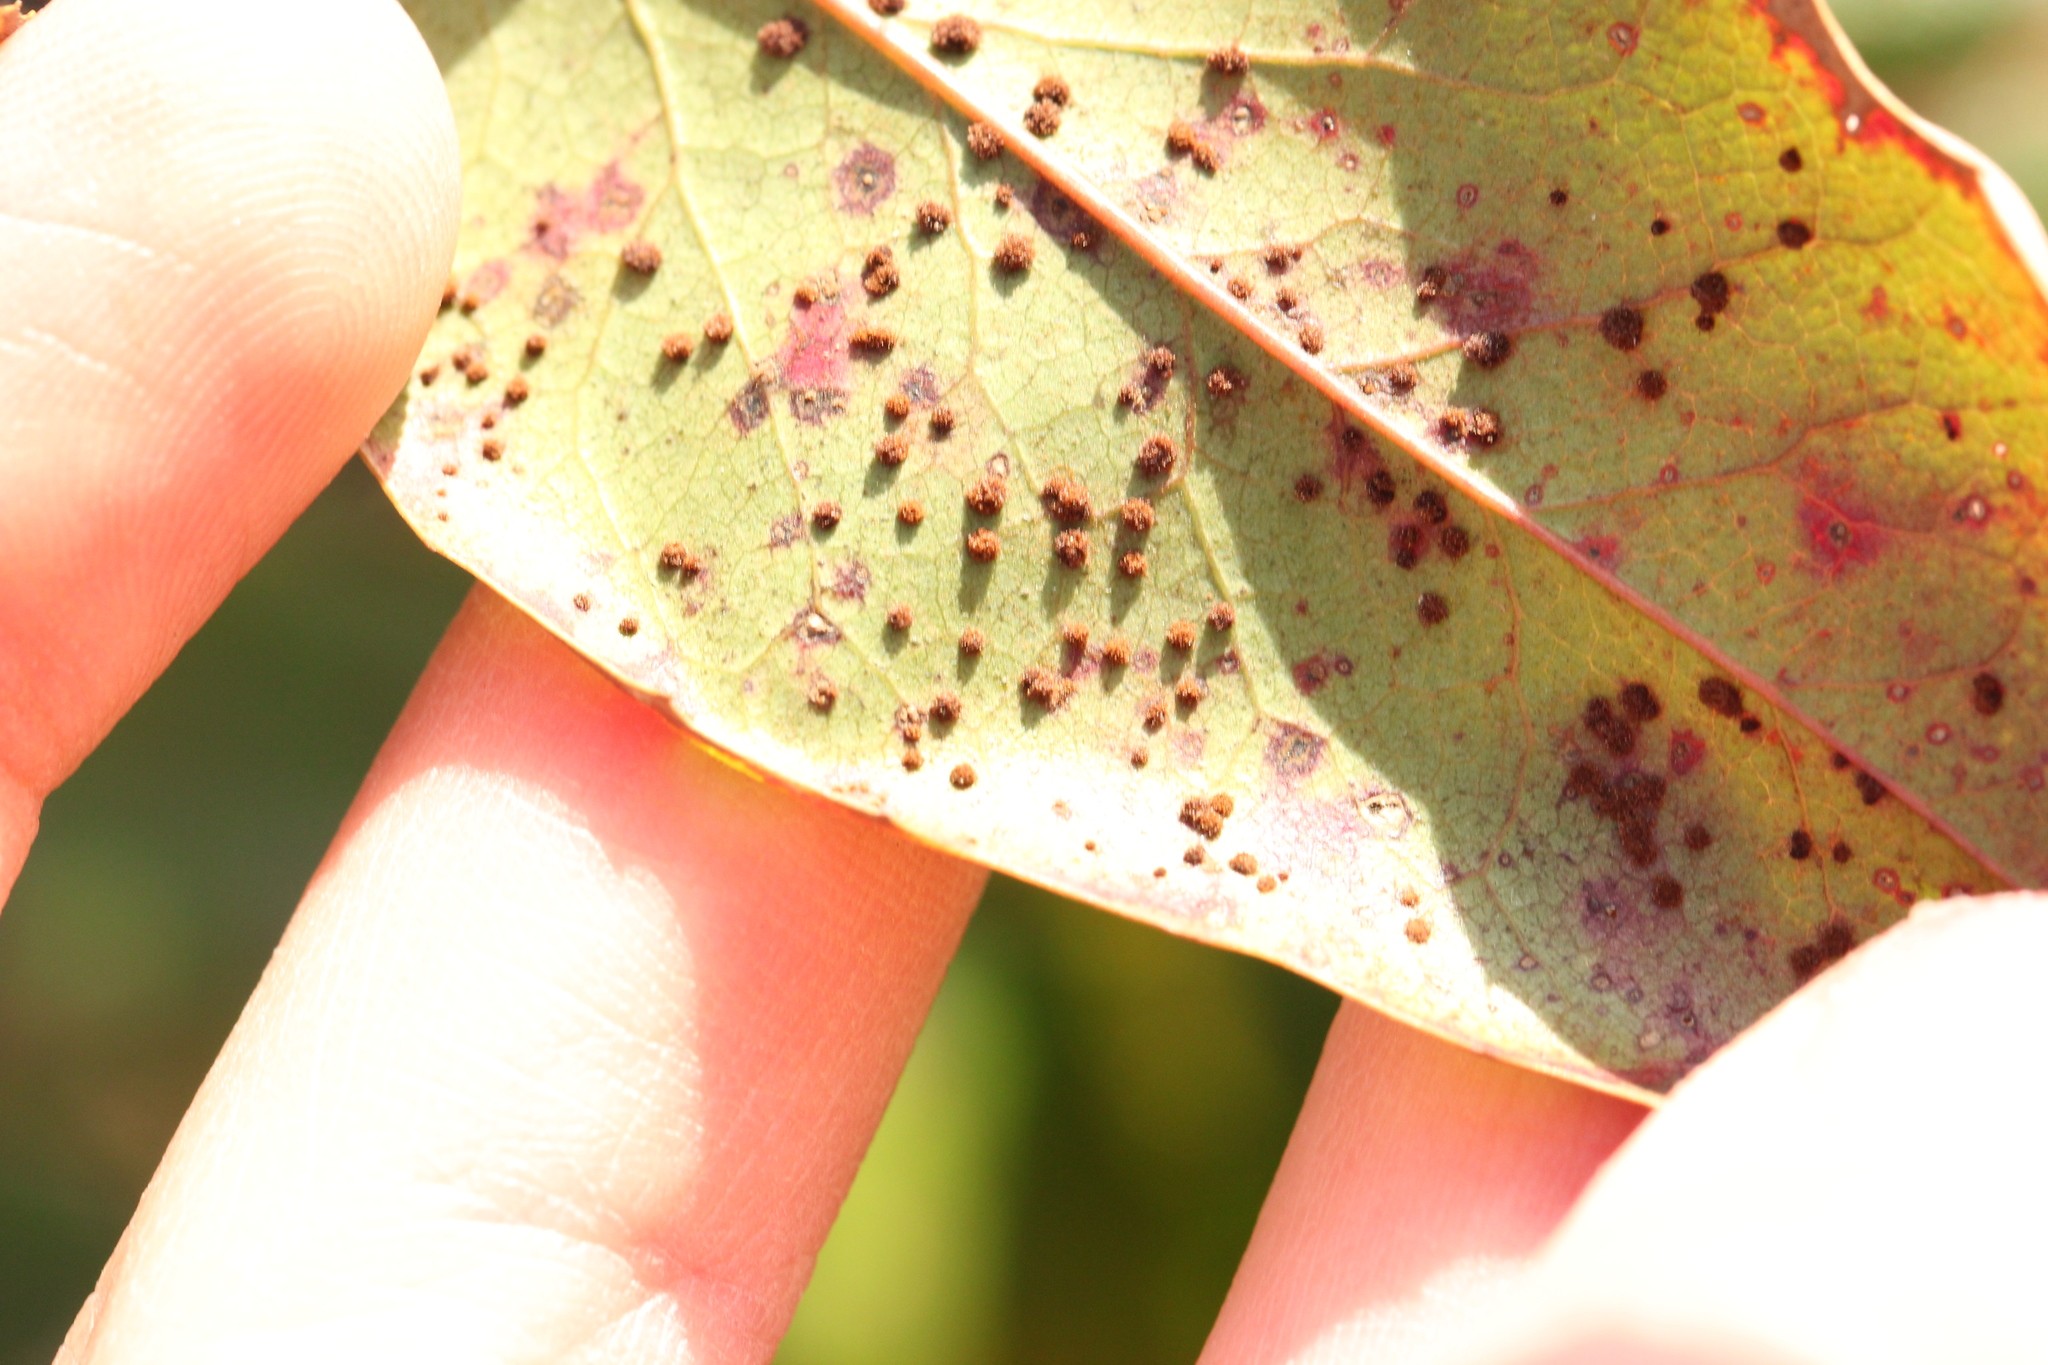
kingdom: Fungi
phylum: Basidiomycota
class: Pucciniomycetes
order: Pucciniales
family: Pucciniaceae
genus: Cumminsiella
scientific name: Cumminsiella mirabilissima
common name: Mahonia rust
